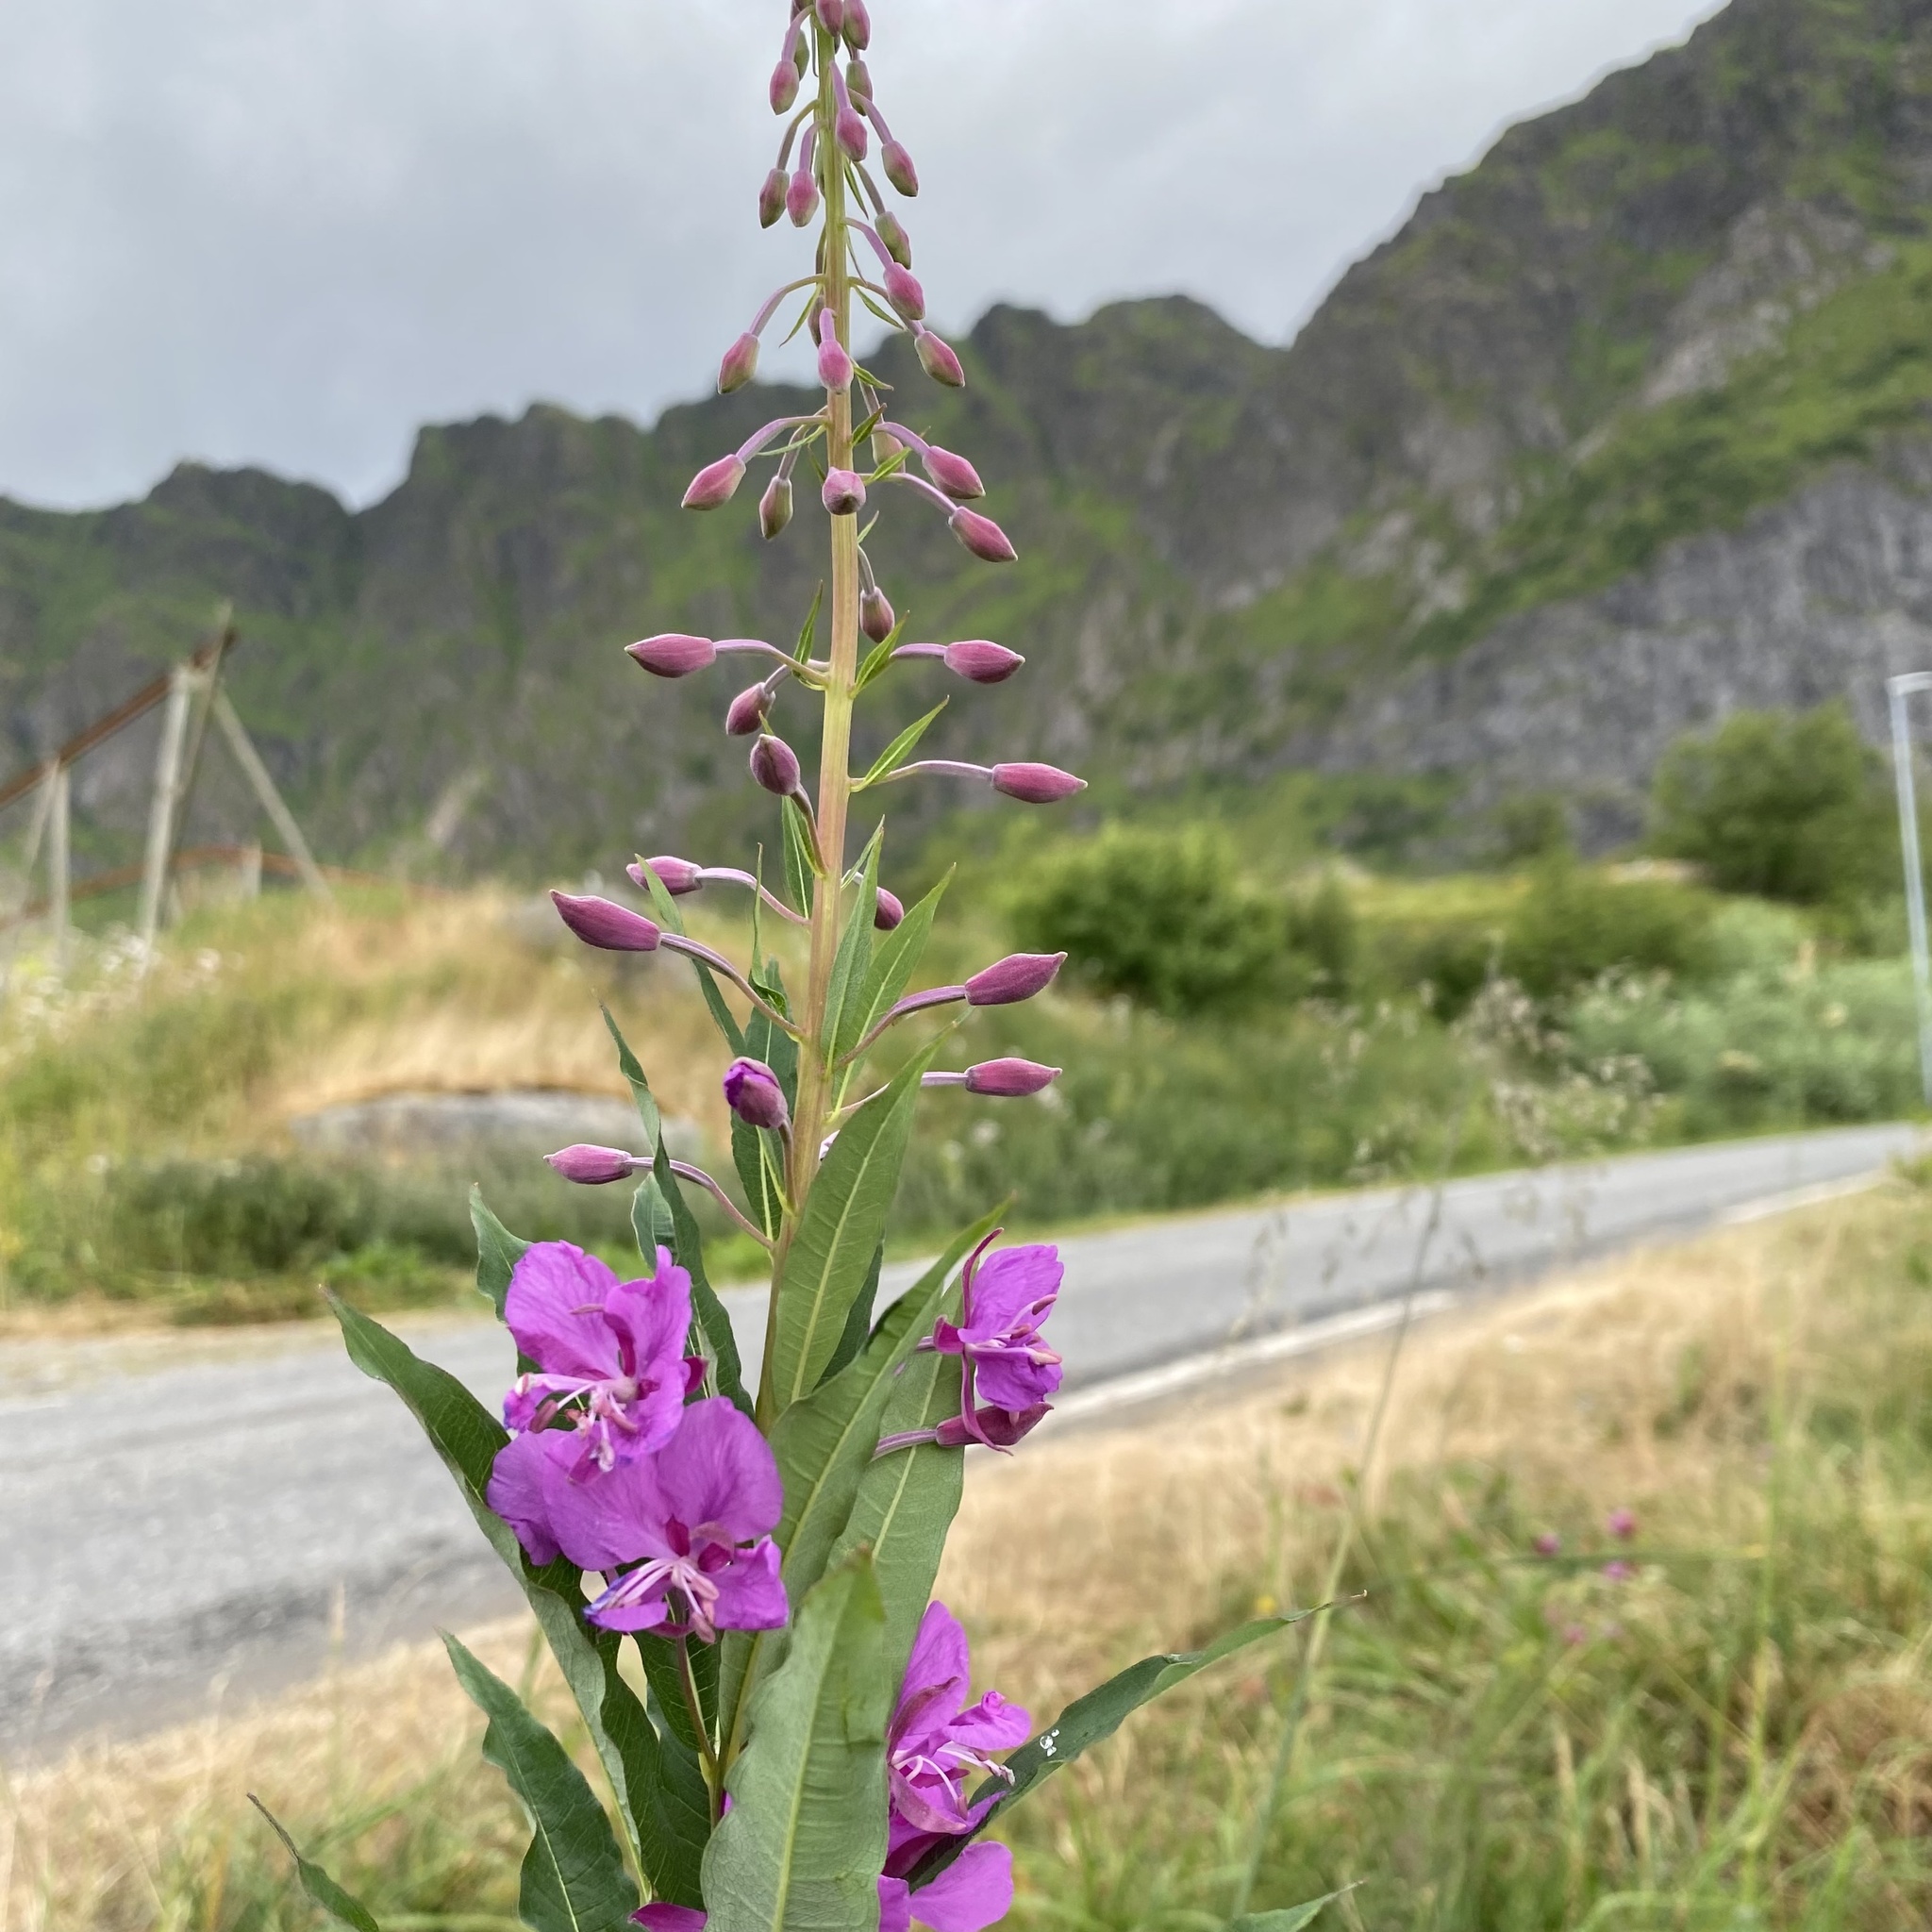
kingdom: Plantae
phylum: Tracheophyta
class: Magnoliopsida
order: Myrtales
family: Onagraceae
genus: Chamaenerion
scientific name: Chamaenerion angustifolium
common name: Fireweed
